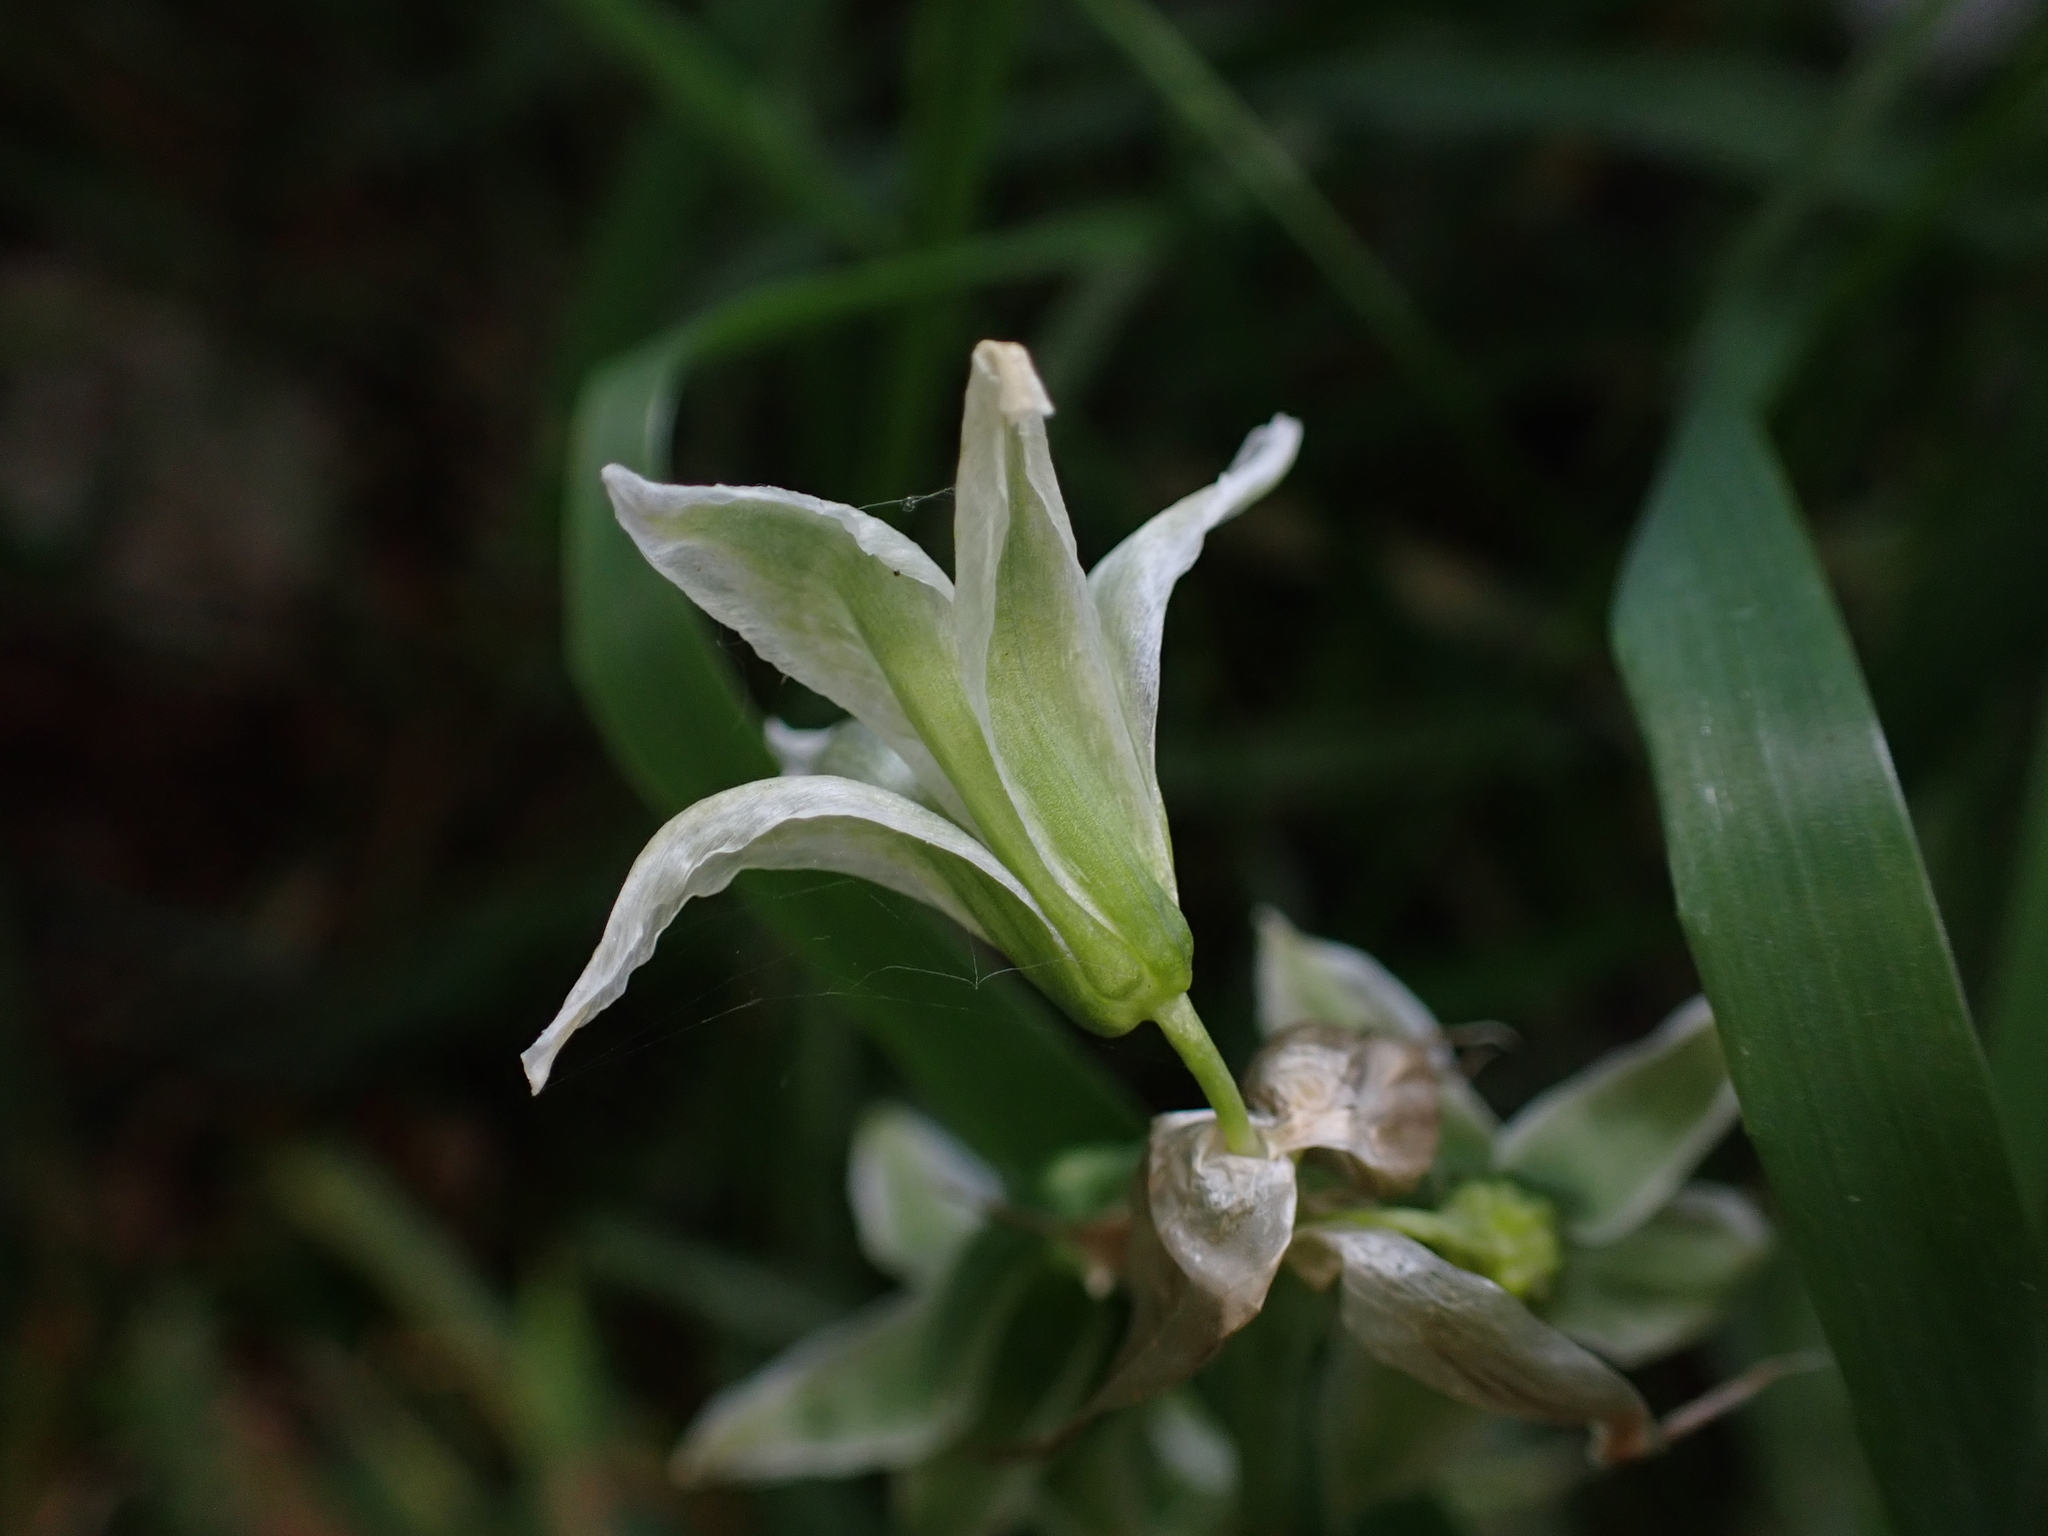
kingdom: Plantae
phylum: Tracheophyta
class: Liliopsida
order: Asparagales
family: Asparagaceae
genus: Ornithogalum
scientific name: Ornithogalum nutans
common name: Drooping star-of-bethlehem
